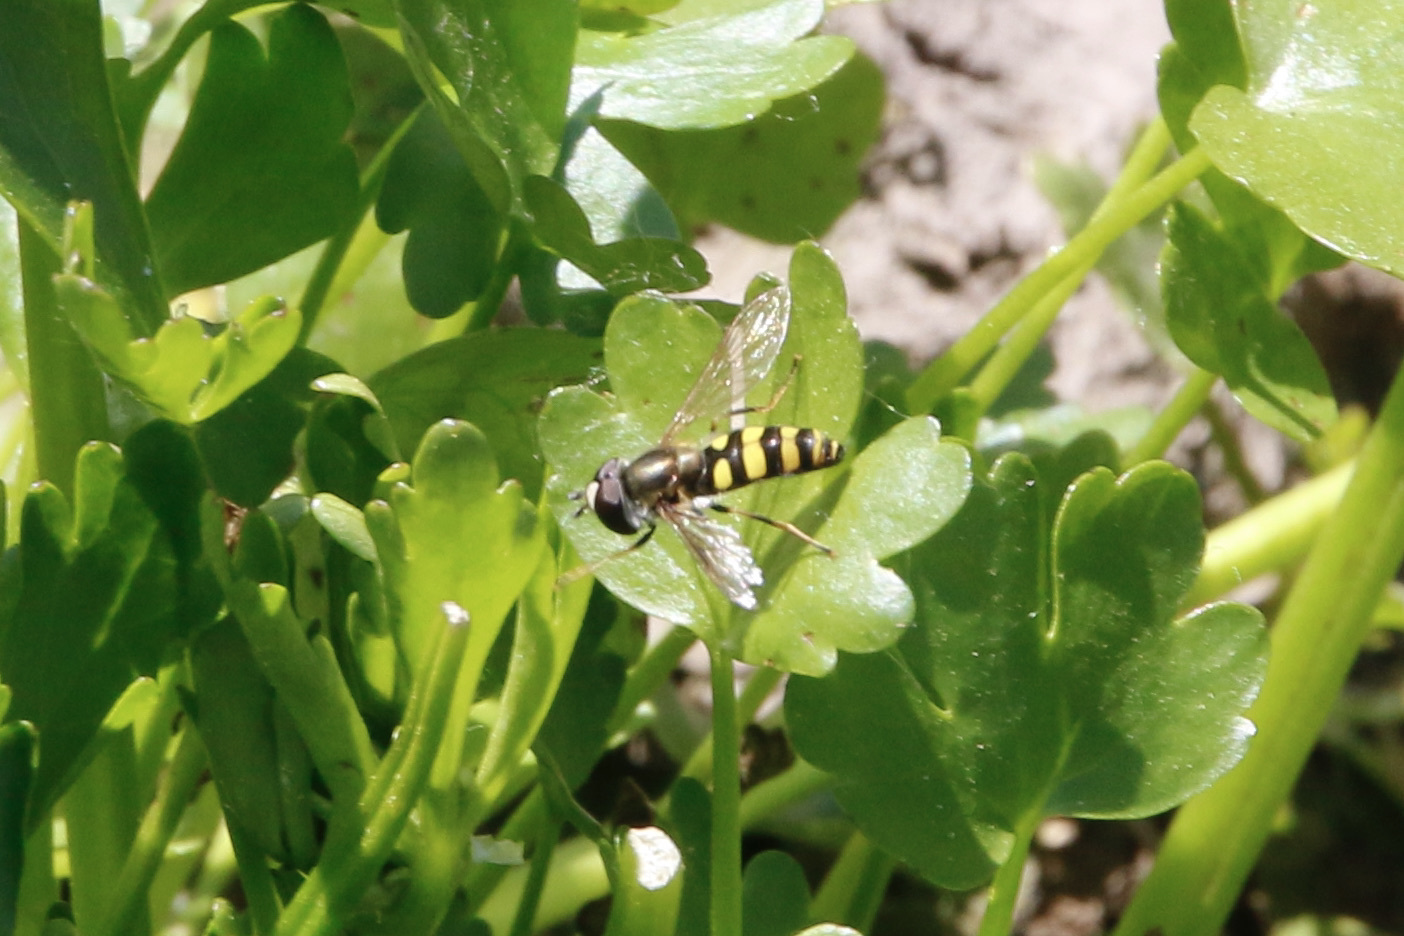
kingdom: Animalia
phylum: Arthropoda
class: Insecta
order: Diptera
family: Syrphidae
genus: Eupeodes
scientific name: Eupeodes
